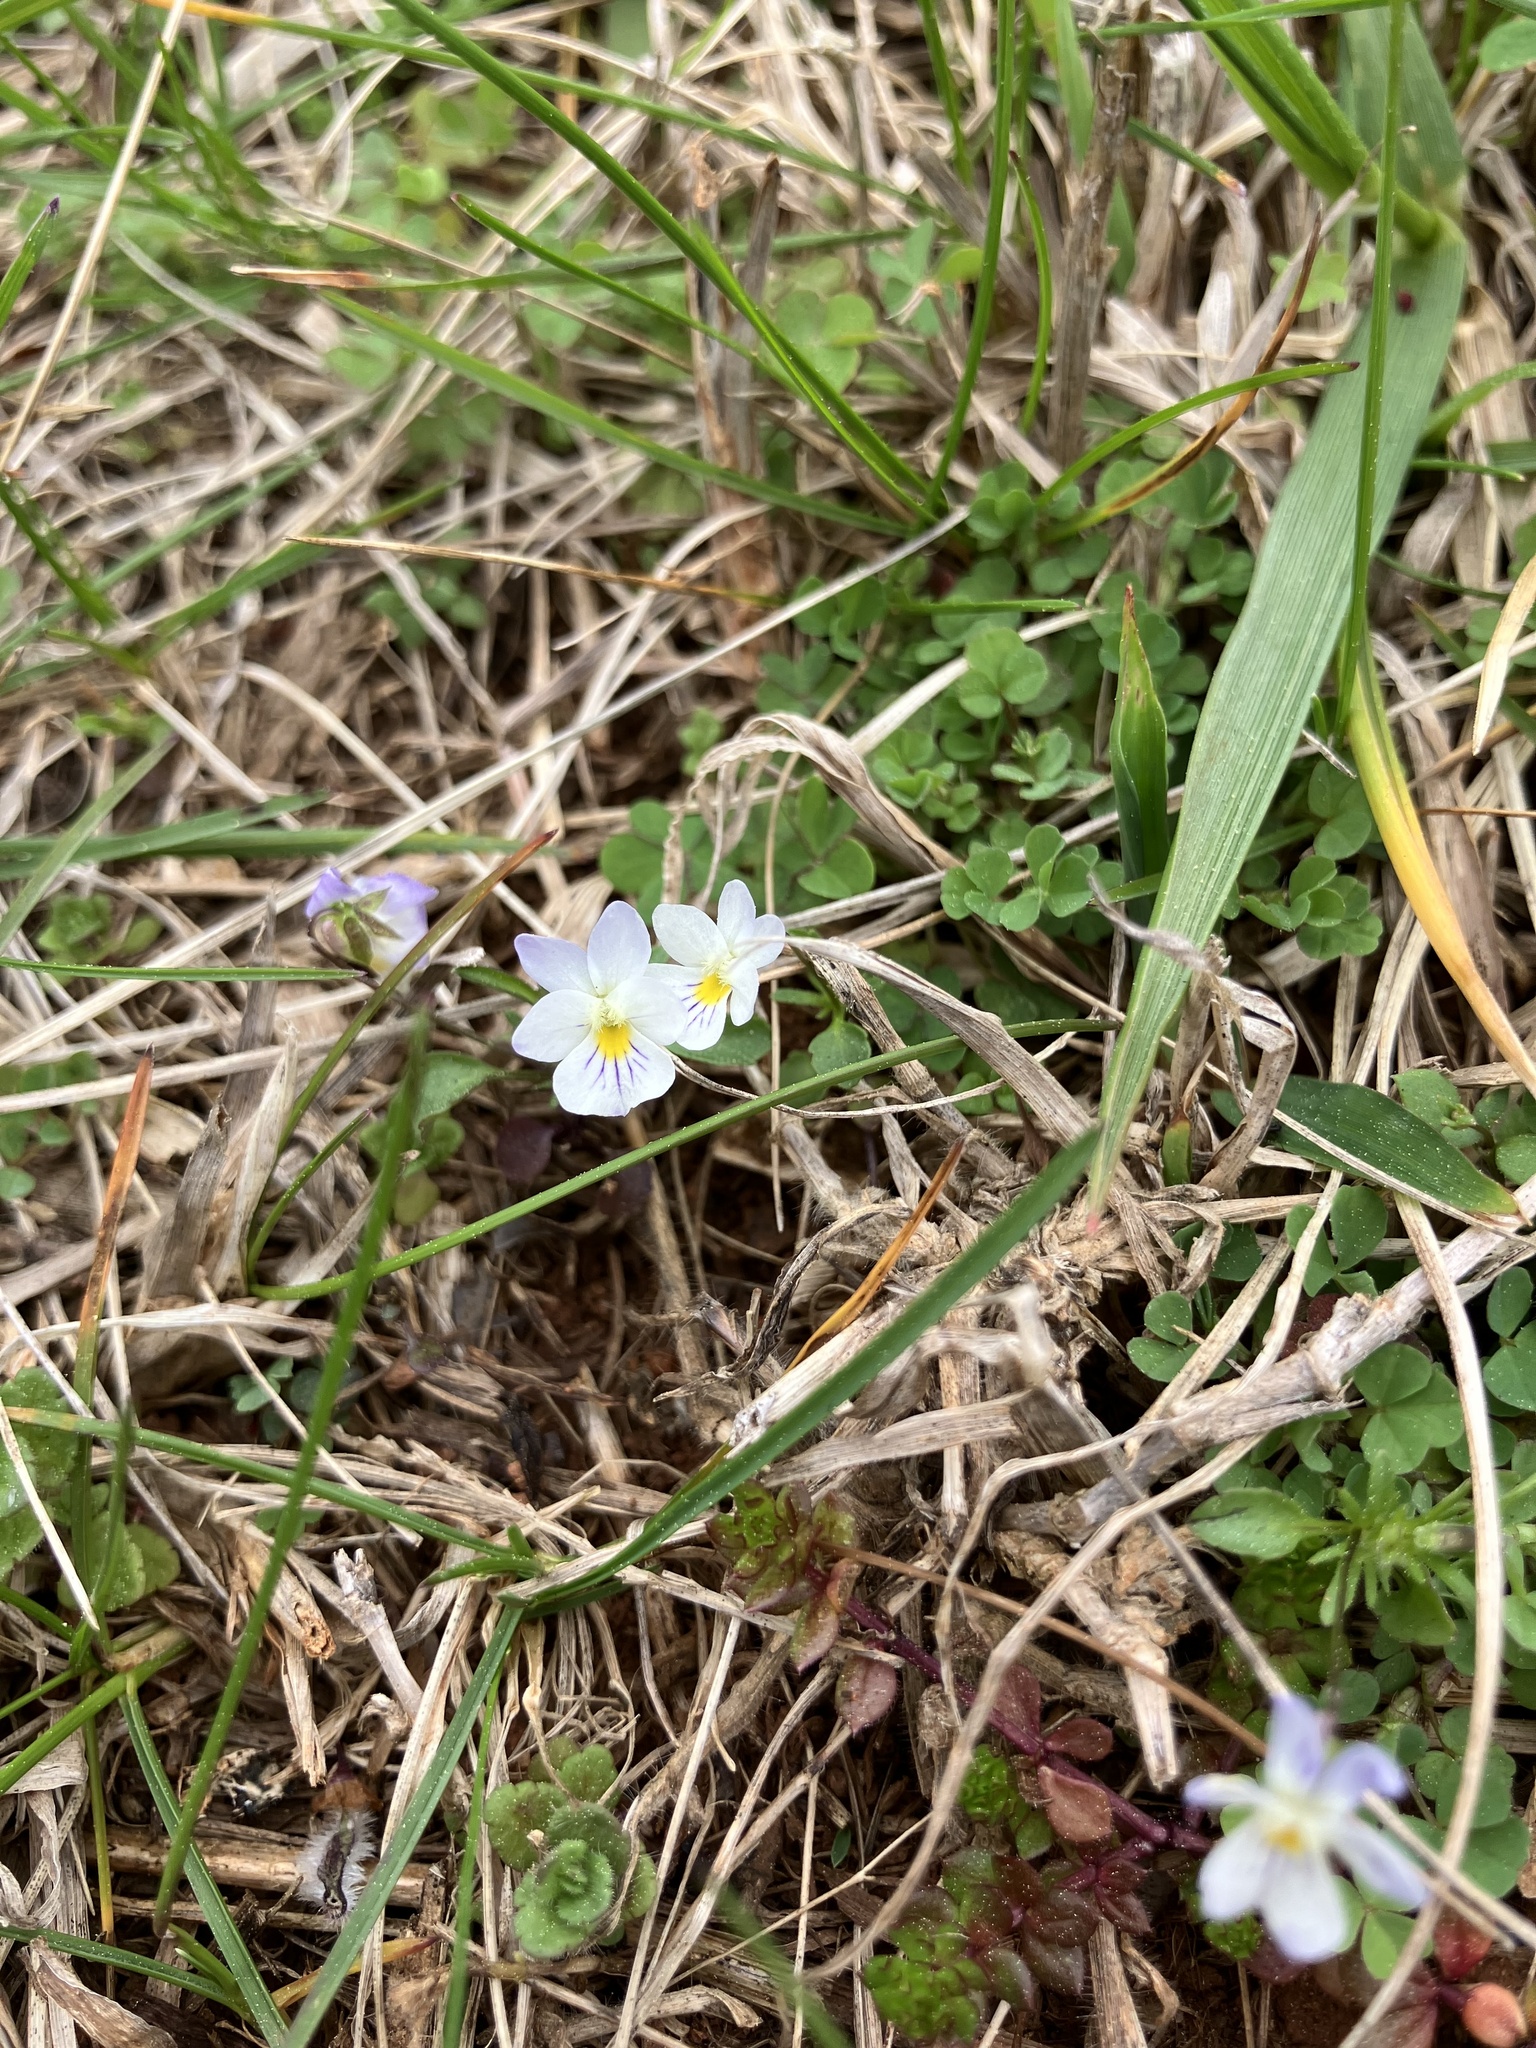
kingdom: Plantae
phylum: Tracheophyta
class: Magnoliopsida
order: Malpighiales
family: Violaceae
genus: Viola
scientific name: Viola rafinesquei
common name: American field pansy
